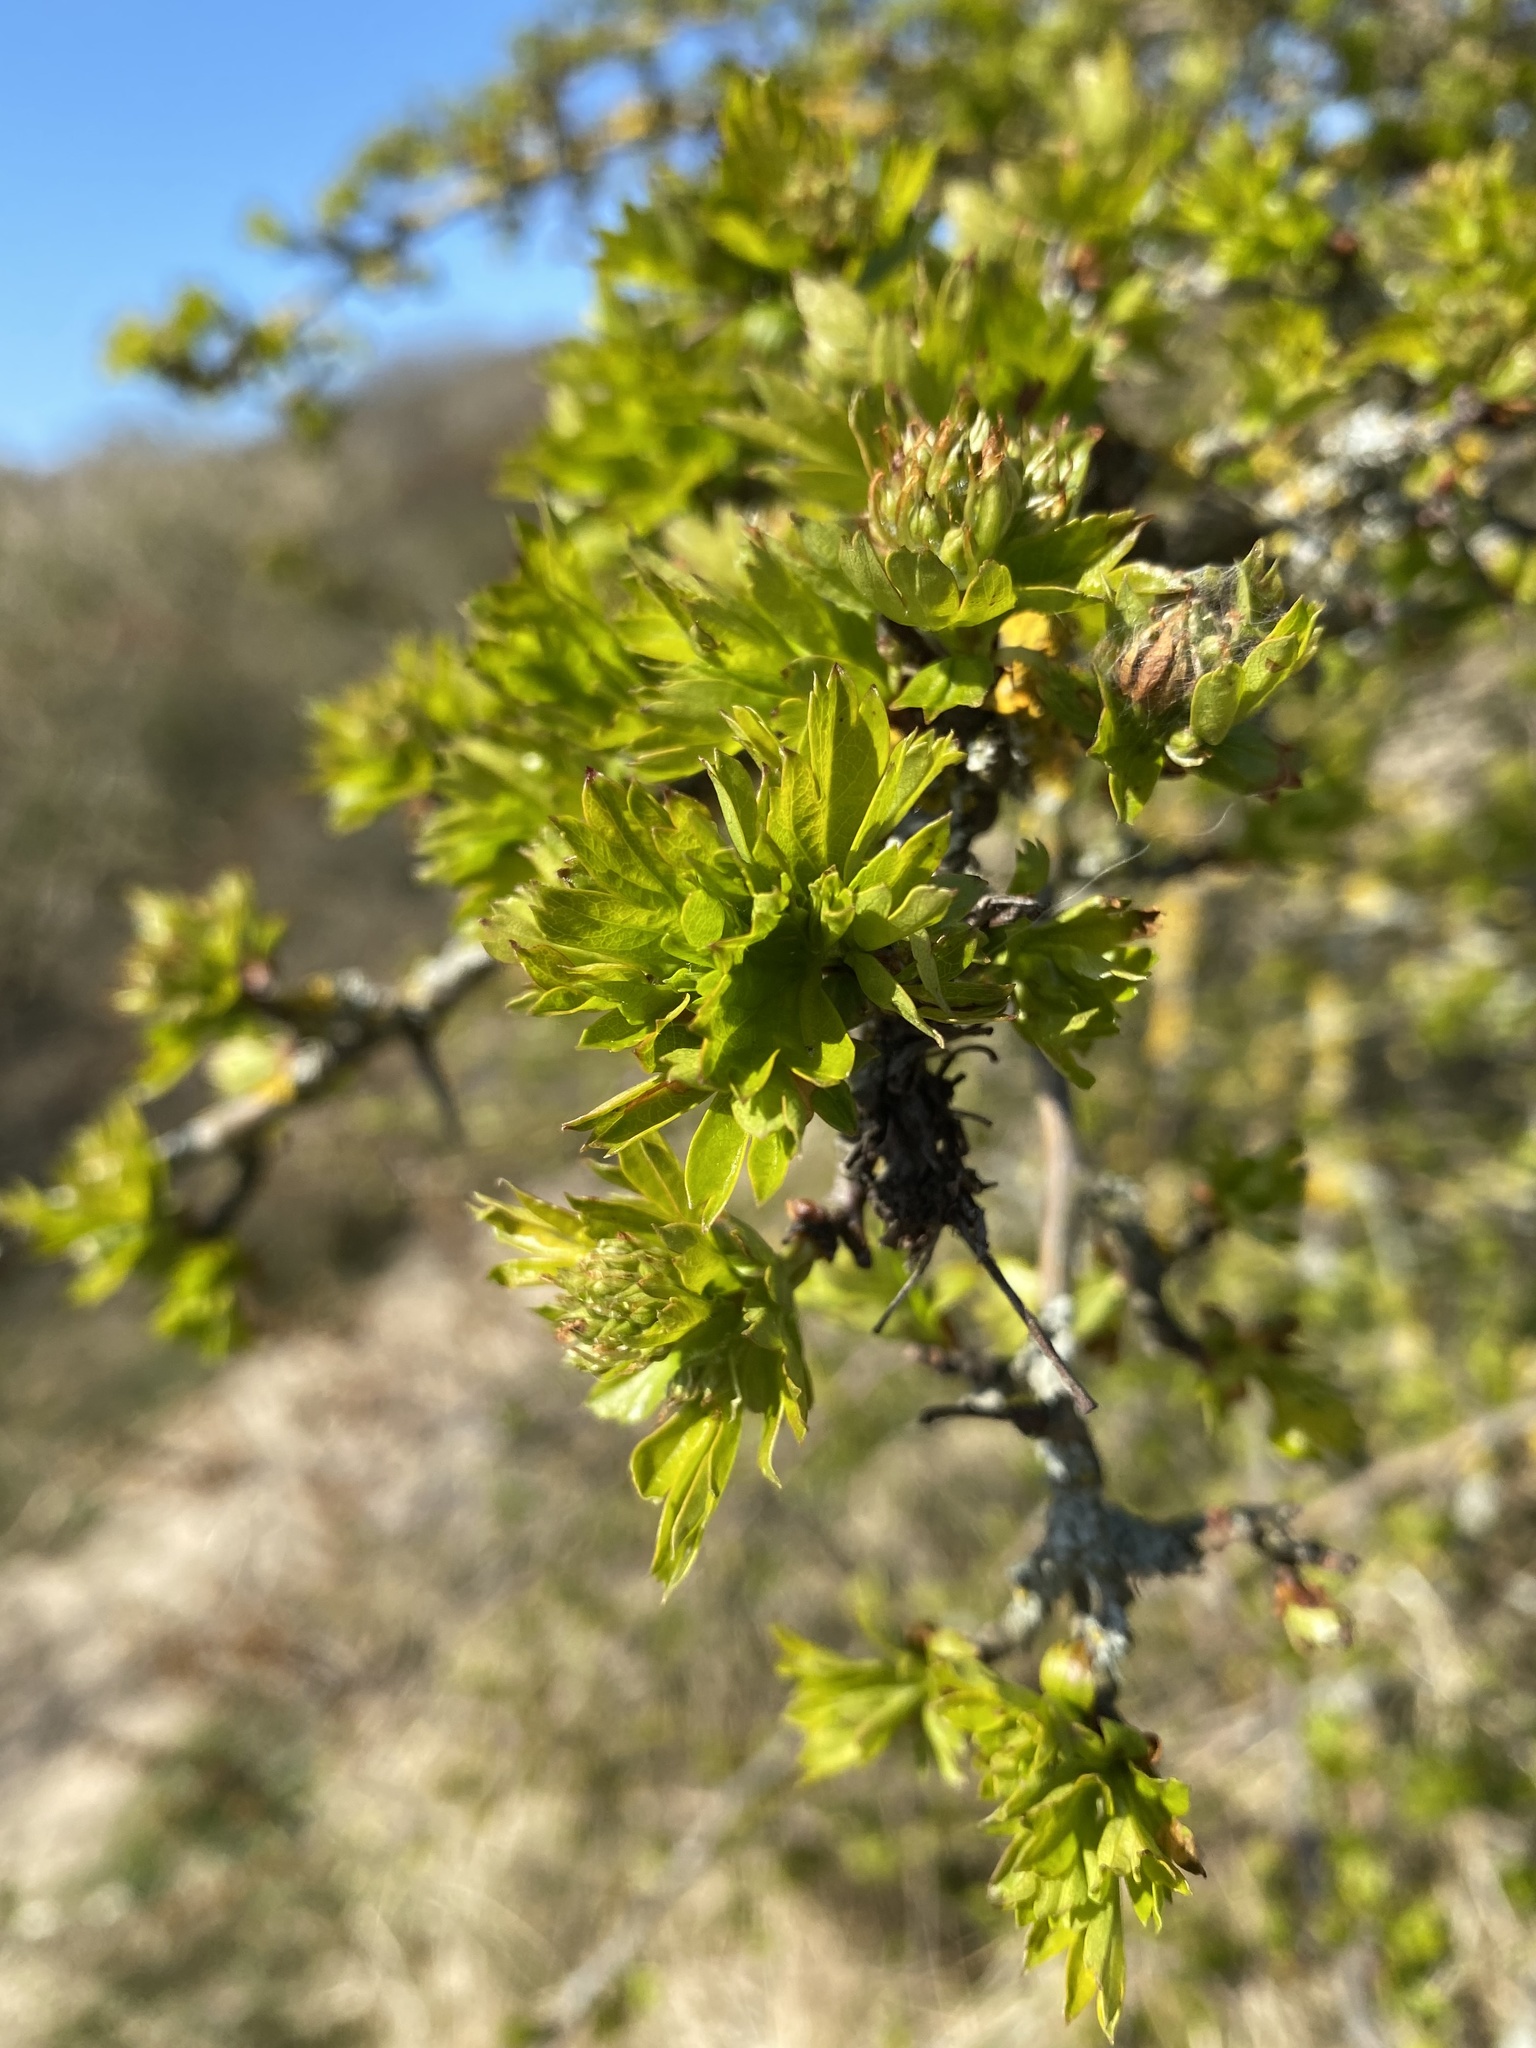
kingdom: Plantae
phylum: Tracheophyta
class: Magnoliopsida
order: Rosales
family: Rosaceae
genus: Crataegus
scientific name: Crataegus monogyna
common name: Hawthorn
